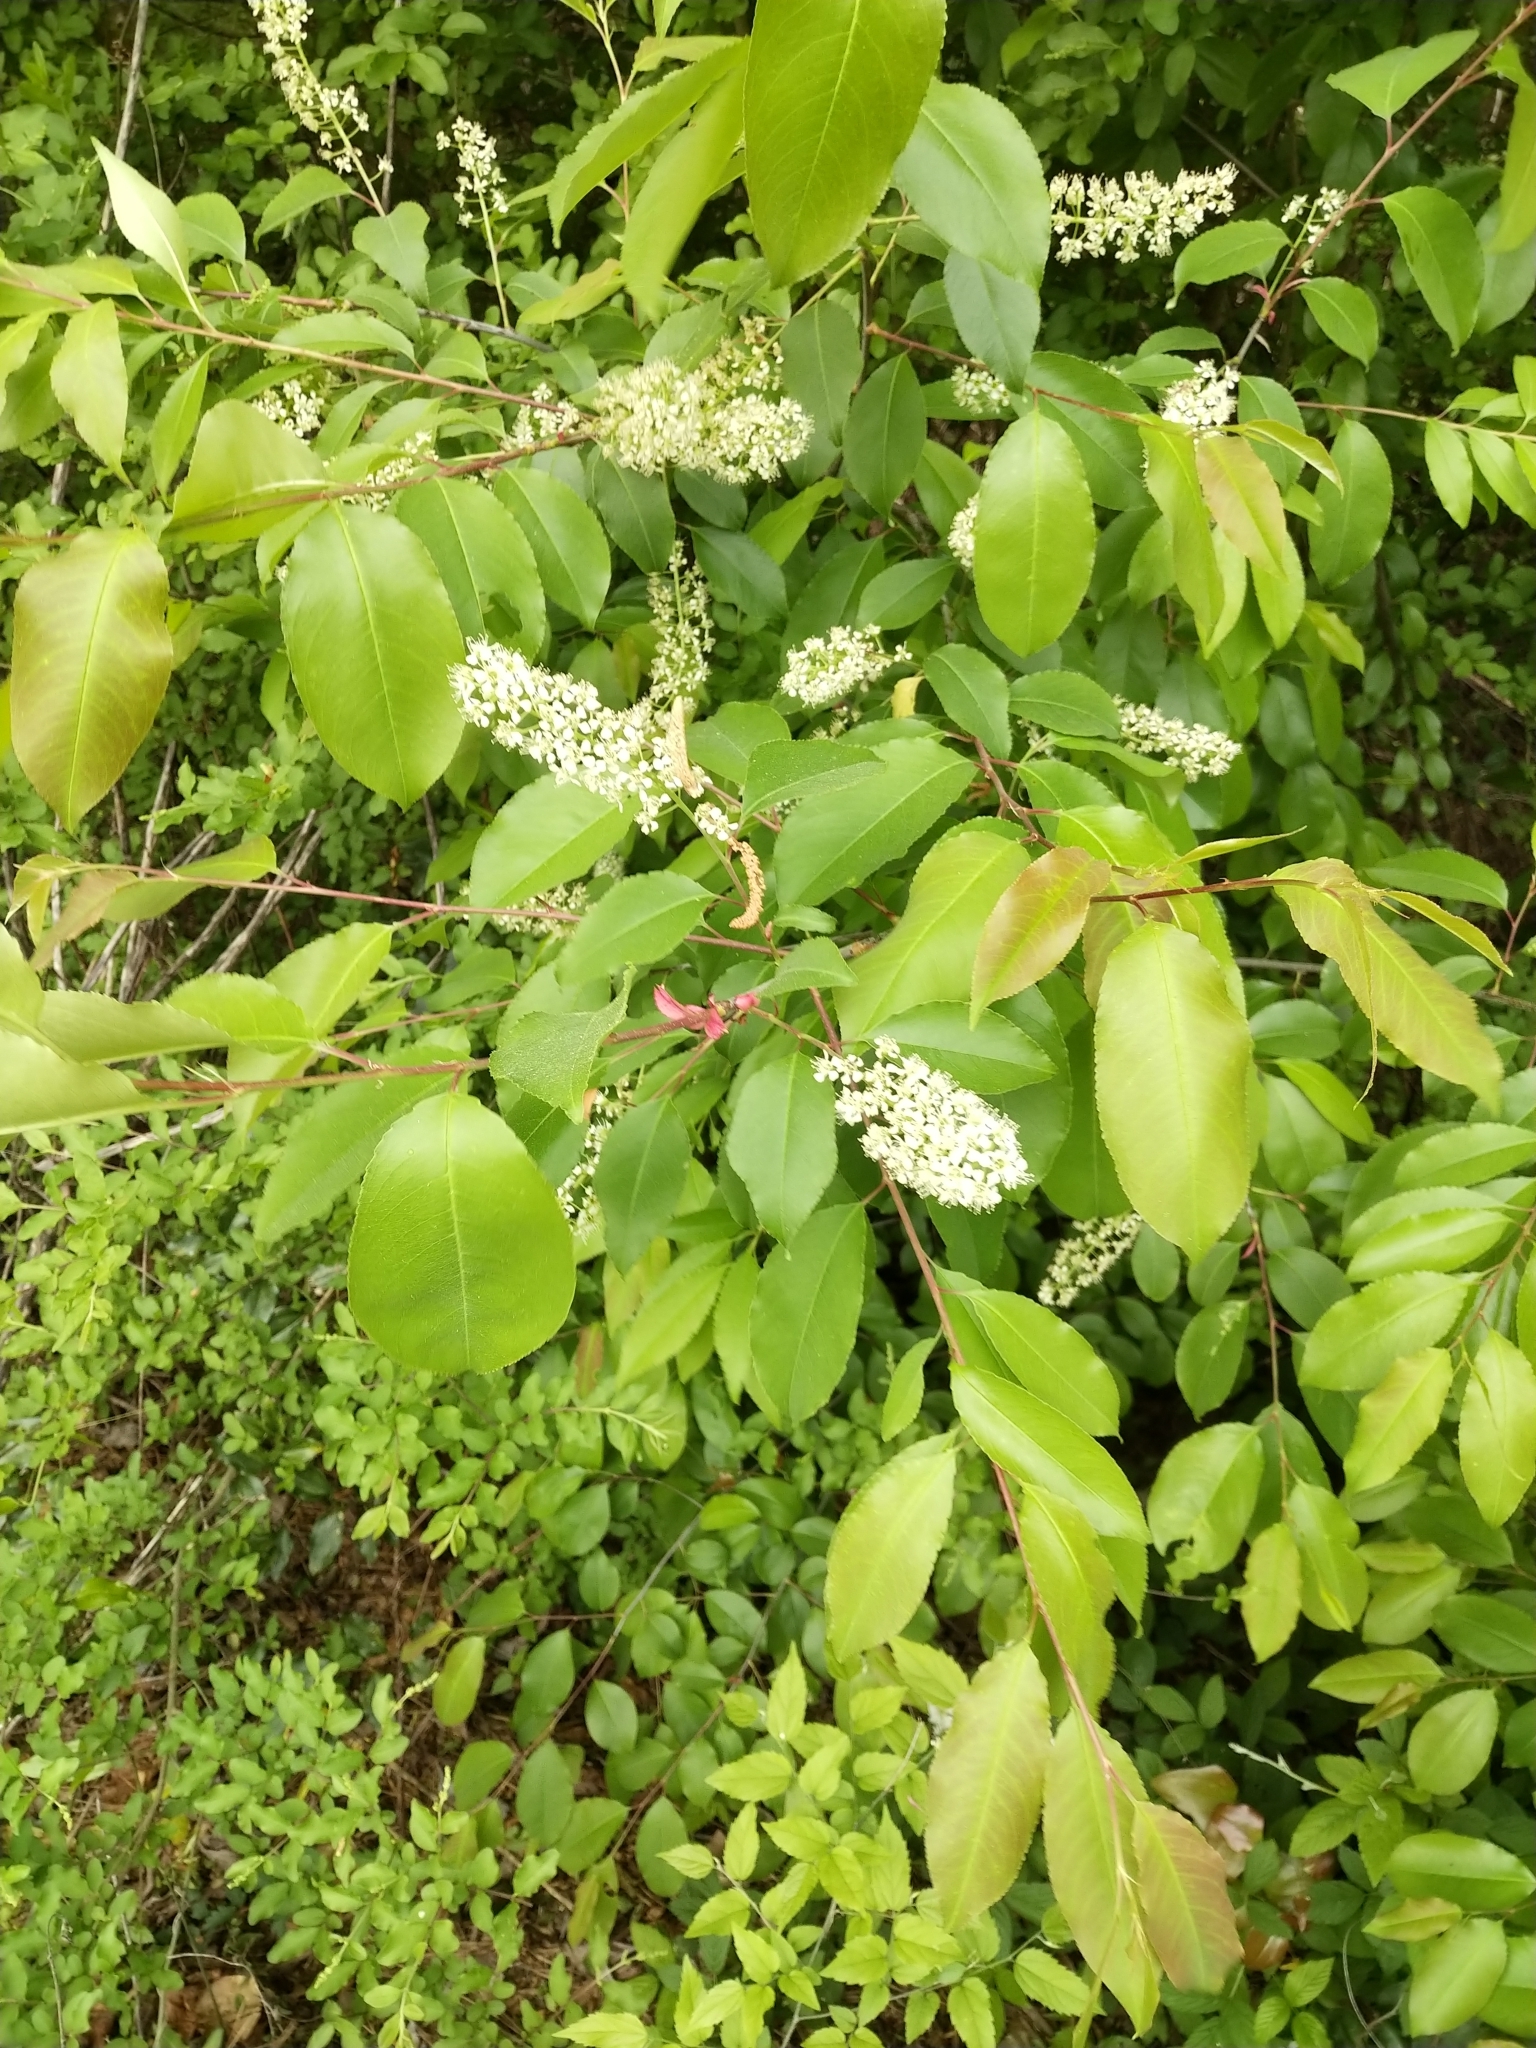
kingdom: Plantae
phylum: Tracheophyta
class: Magnoliopsida
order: Rosales
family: Rosaceae
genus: Prunus
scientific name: Prunus serotina
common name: Black cherry
